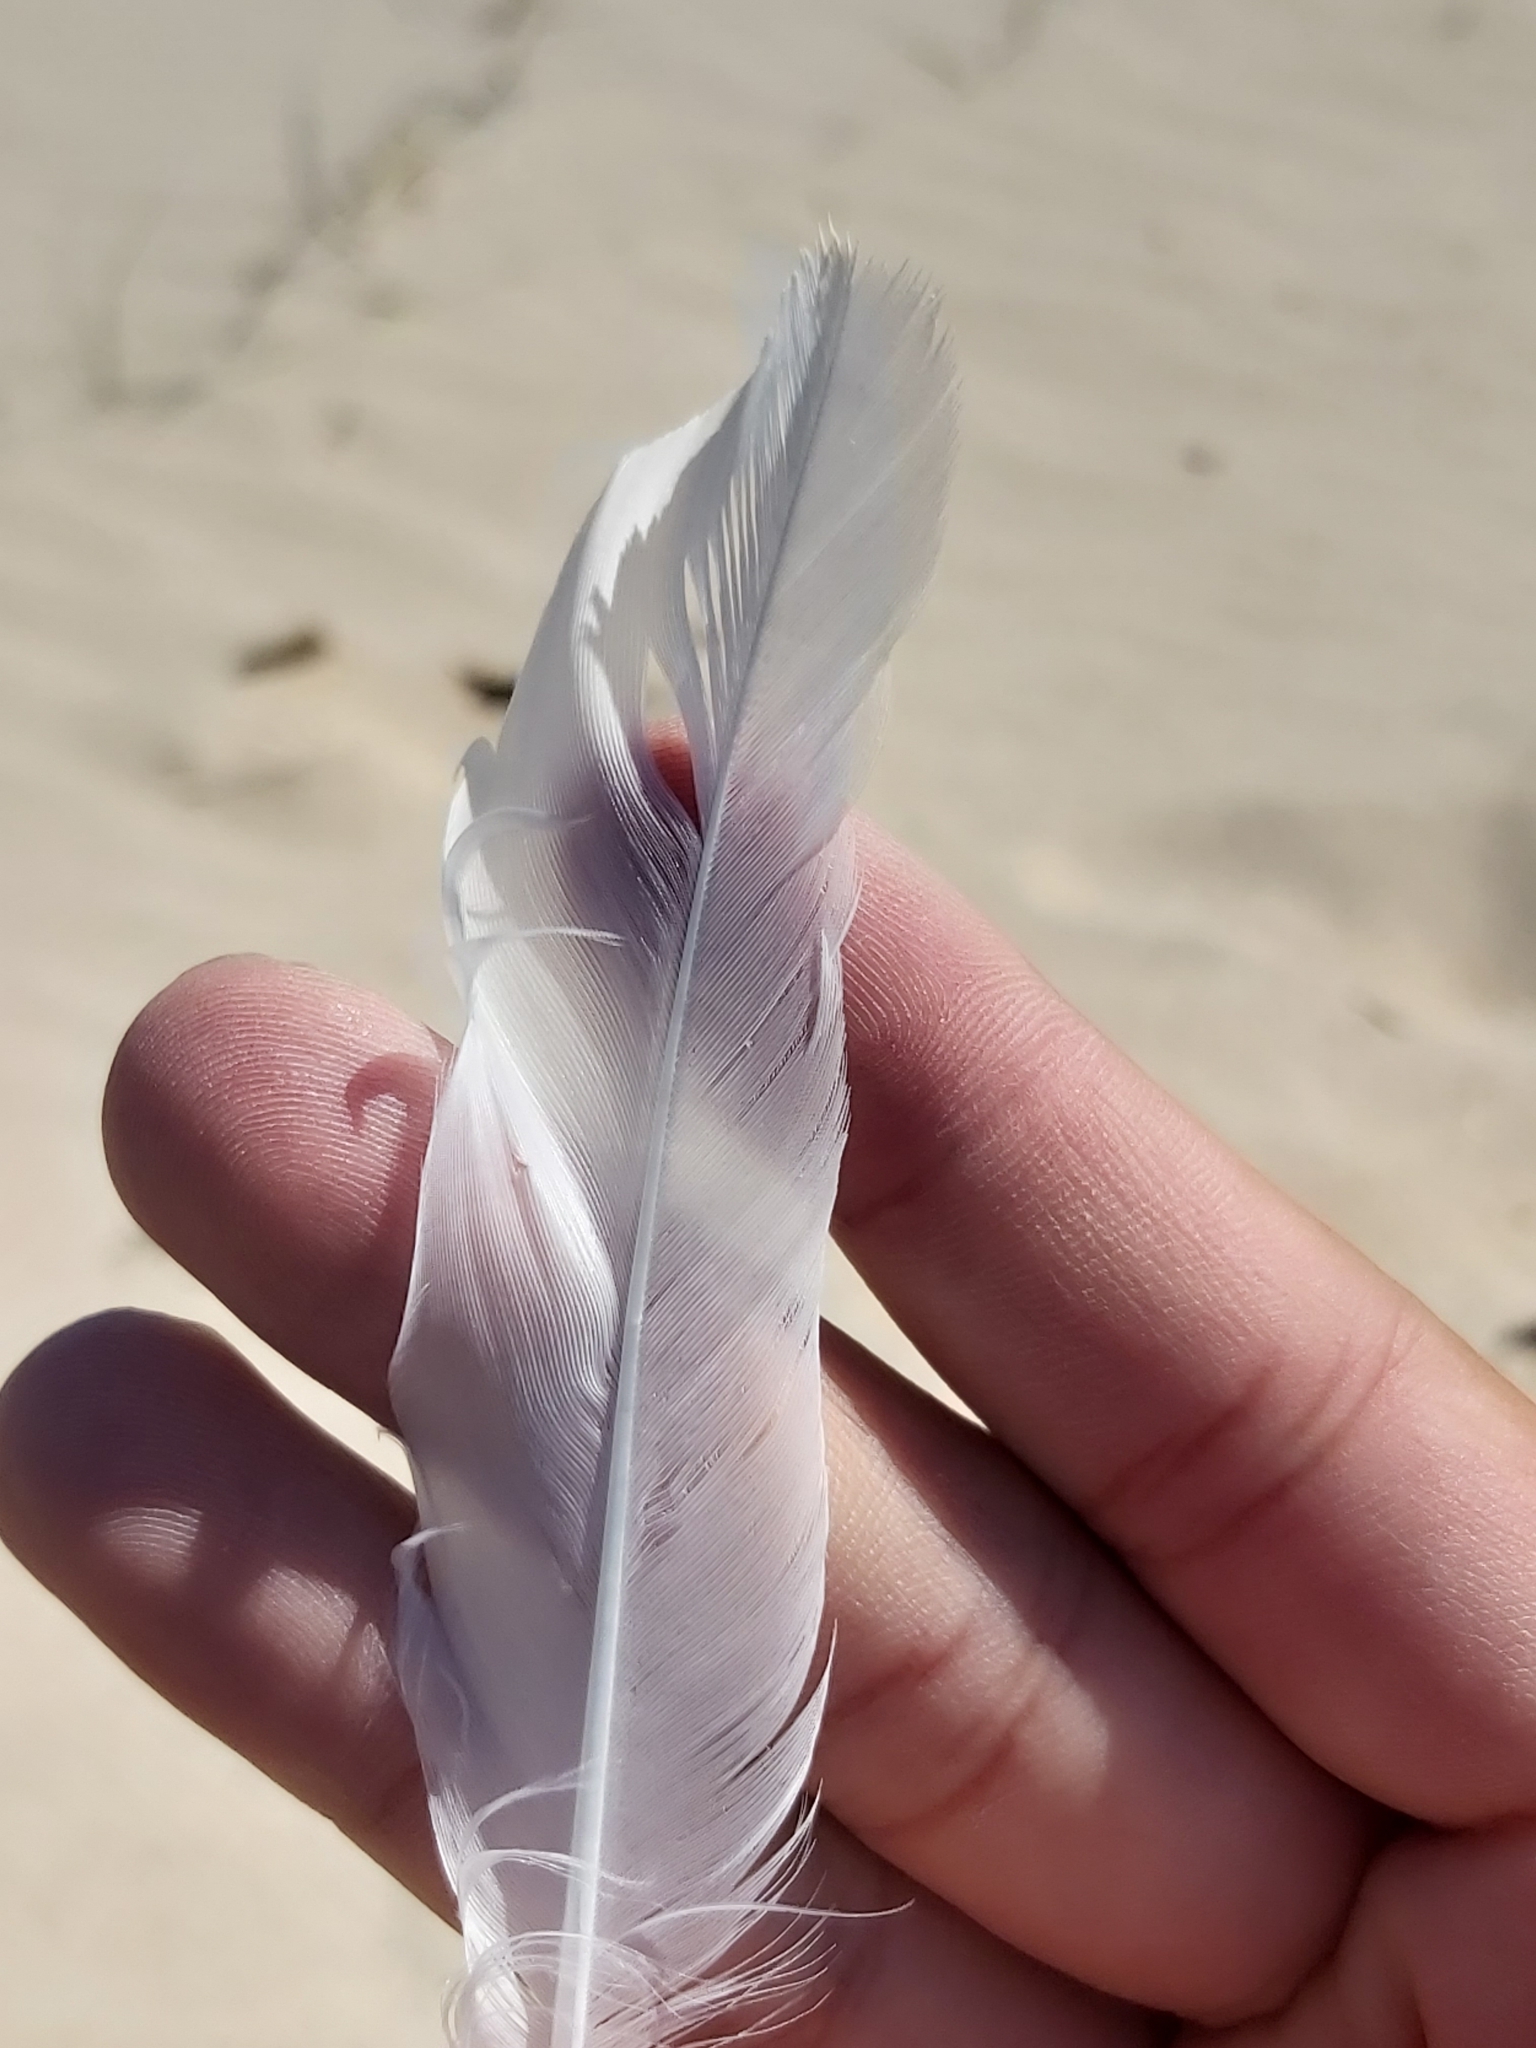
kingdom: Animalia
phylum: Chordata
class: Aves
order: Charadriiformes
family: Laridae
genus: Chroicocephalus
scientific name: Chroicocephalus novaehollandiae
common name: Silver gull
